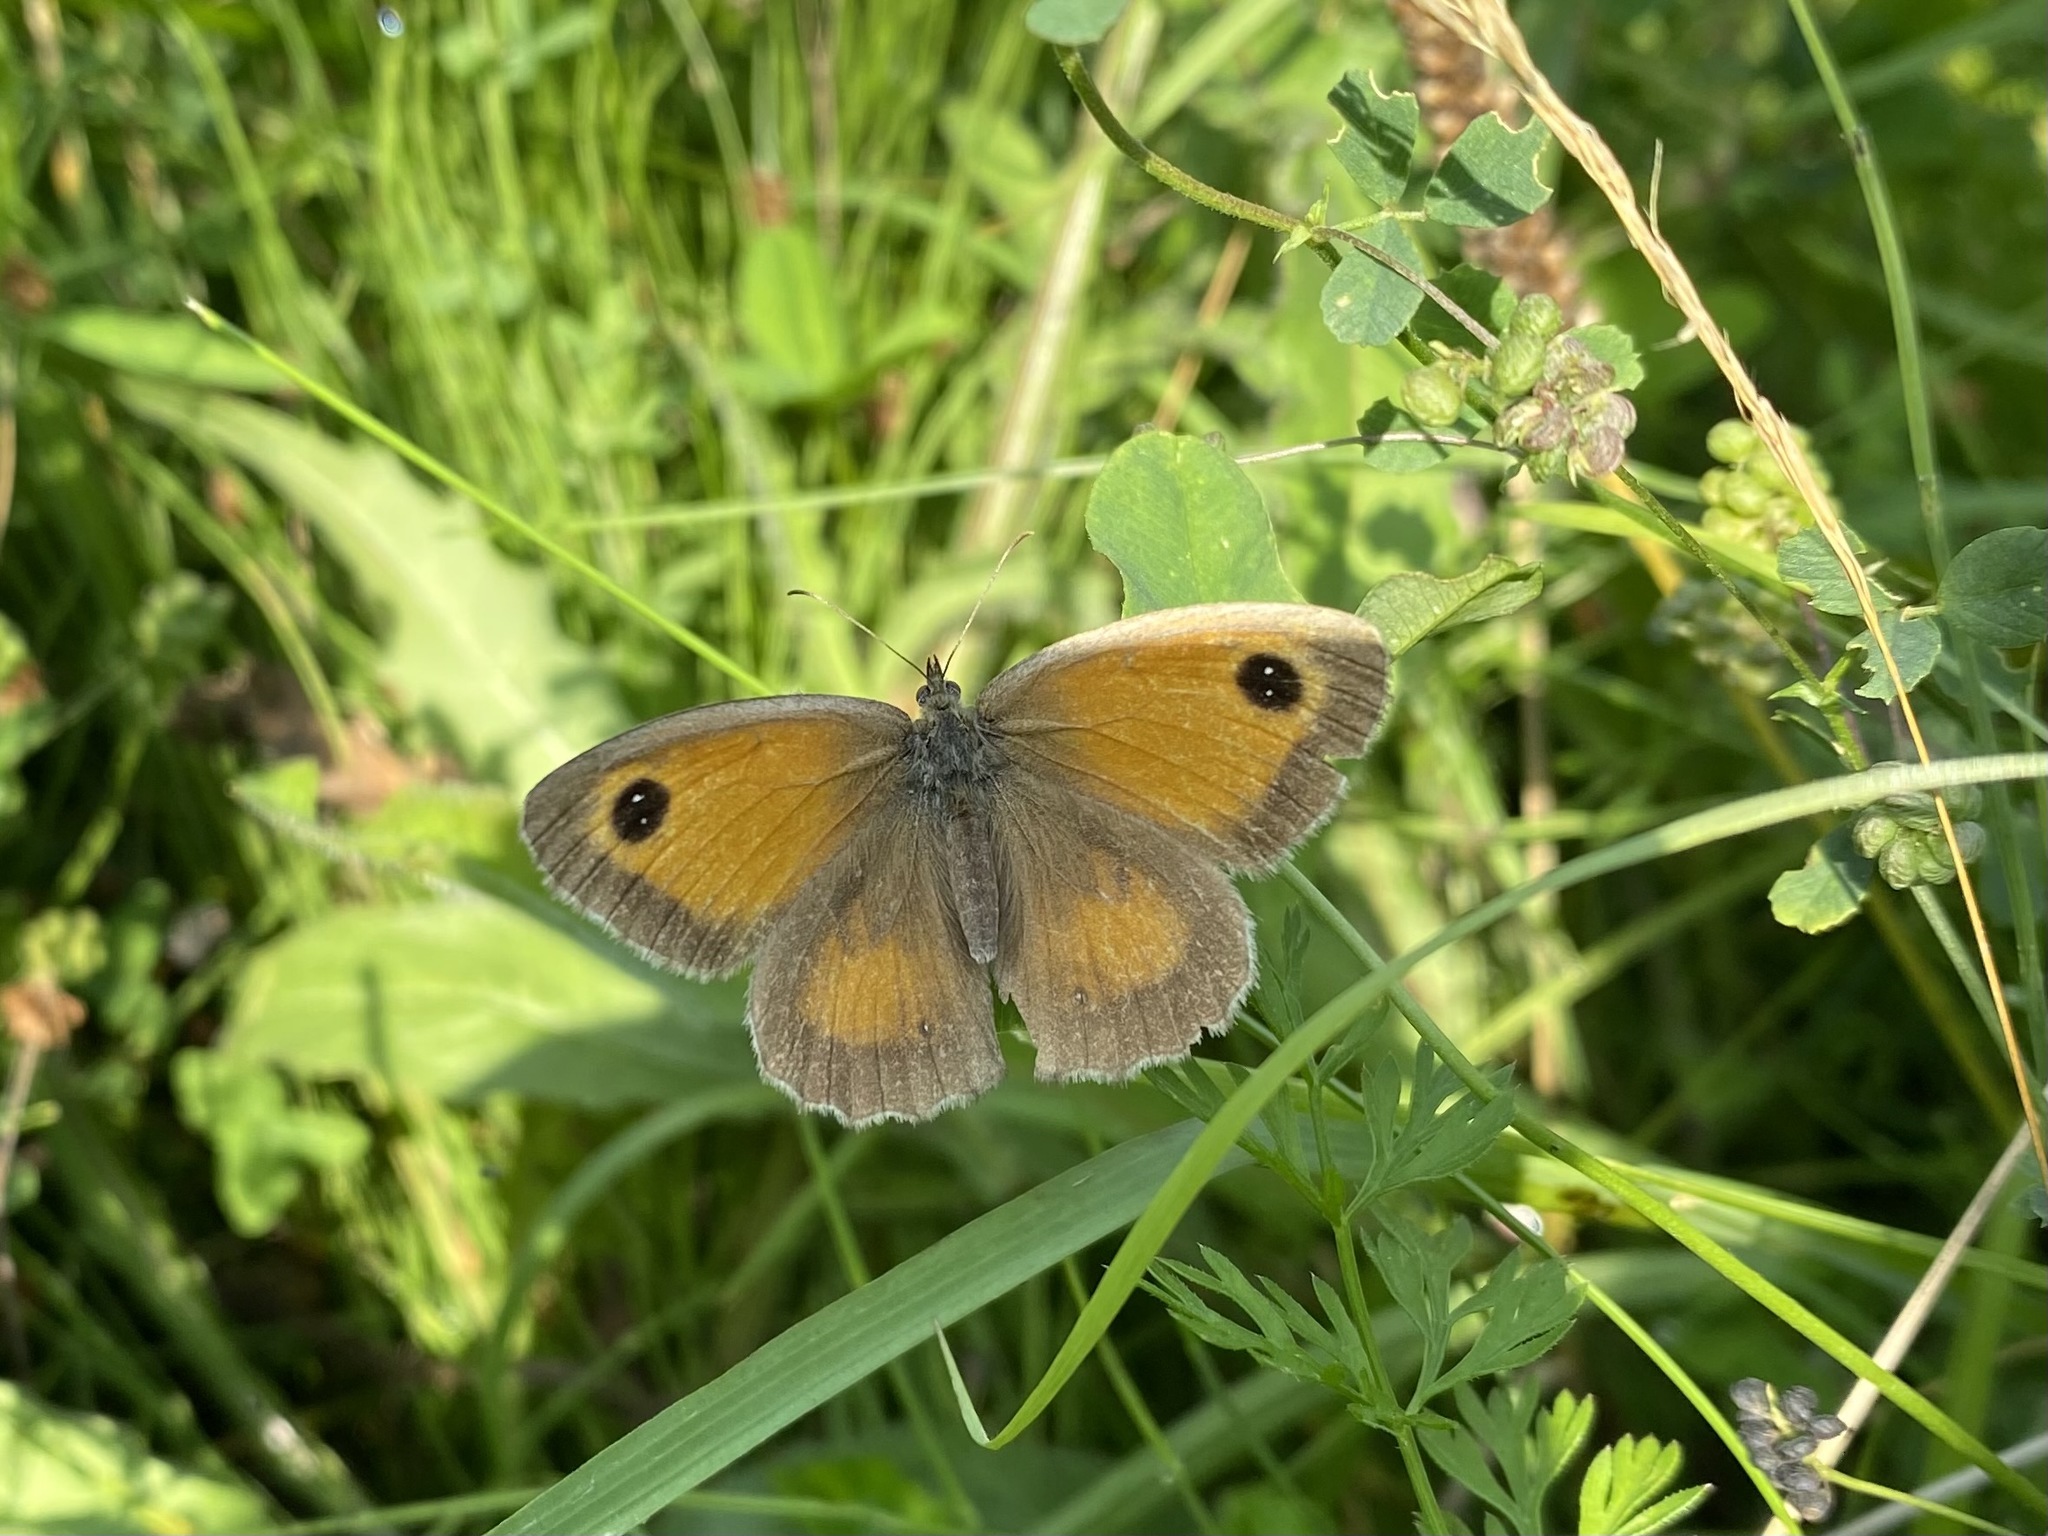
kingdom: Animalia
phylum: Arthropoda
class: Insecta
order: Lepidoptera
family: Nymphalidae
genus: Pyronia
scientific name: Pyronia tithonus
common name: Gatekeeper
